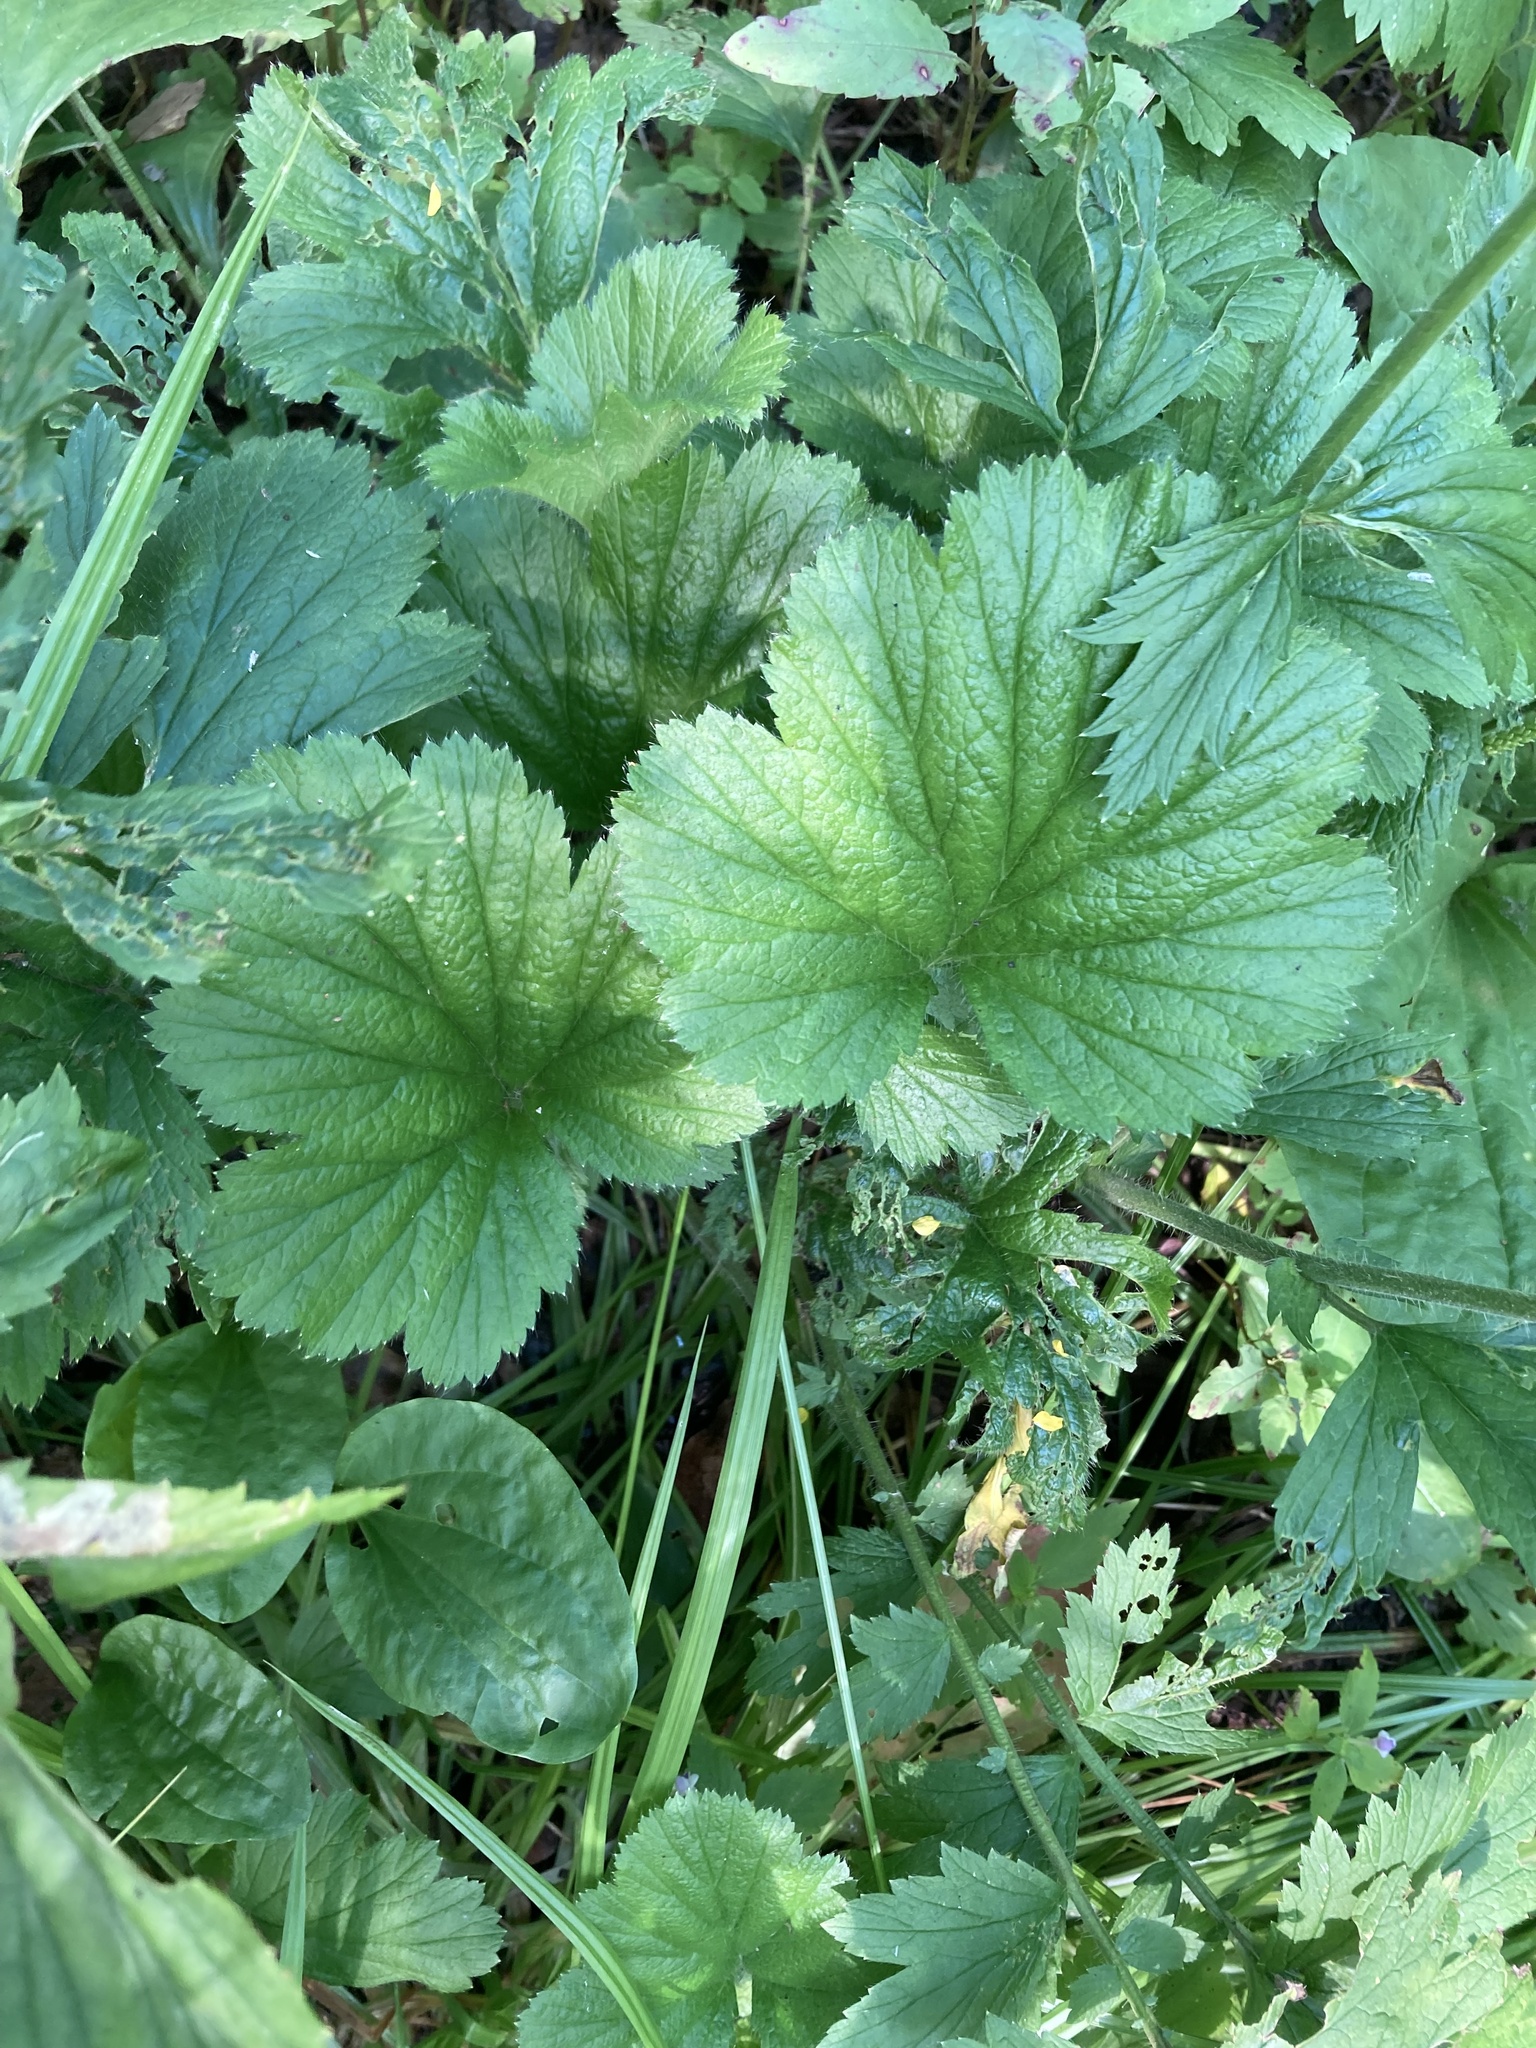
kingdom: Plantae
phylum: Tracheophyta
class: Magnoliopsida
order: Rosales
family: Rosaceae
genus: Geum
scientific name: Geum macrophyllum
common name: Large-leaved avens
